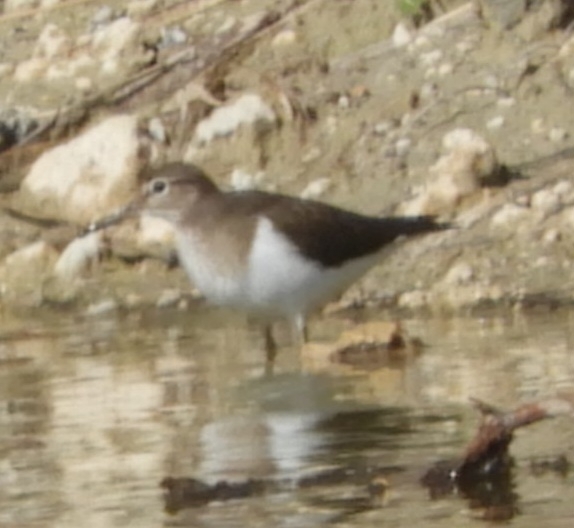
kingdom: Animalia
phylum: Chordata
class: Aves
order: Charadriiformes
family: Scolopacidae
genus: Actitis
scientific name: Actitis hypoleucos
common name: Common sandpiper
